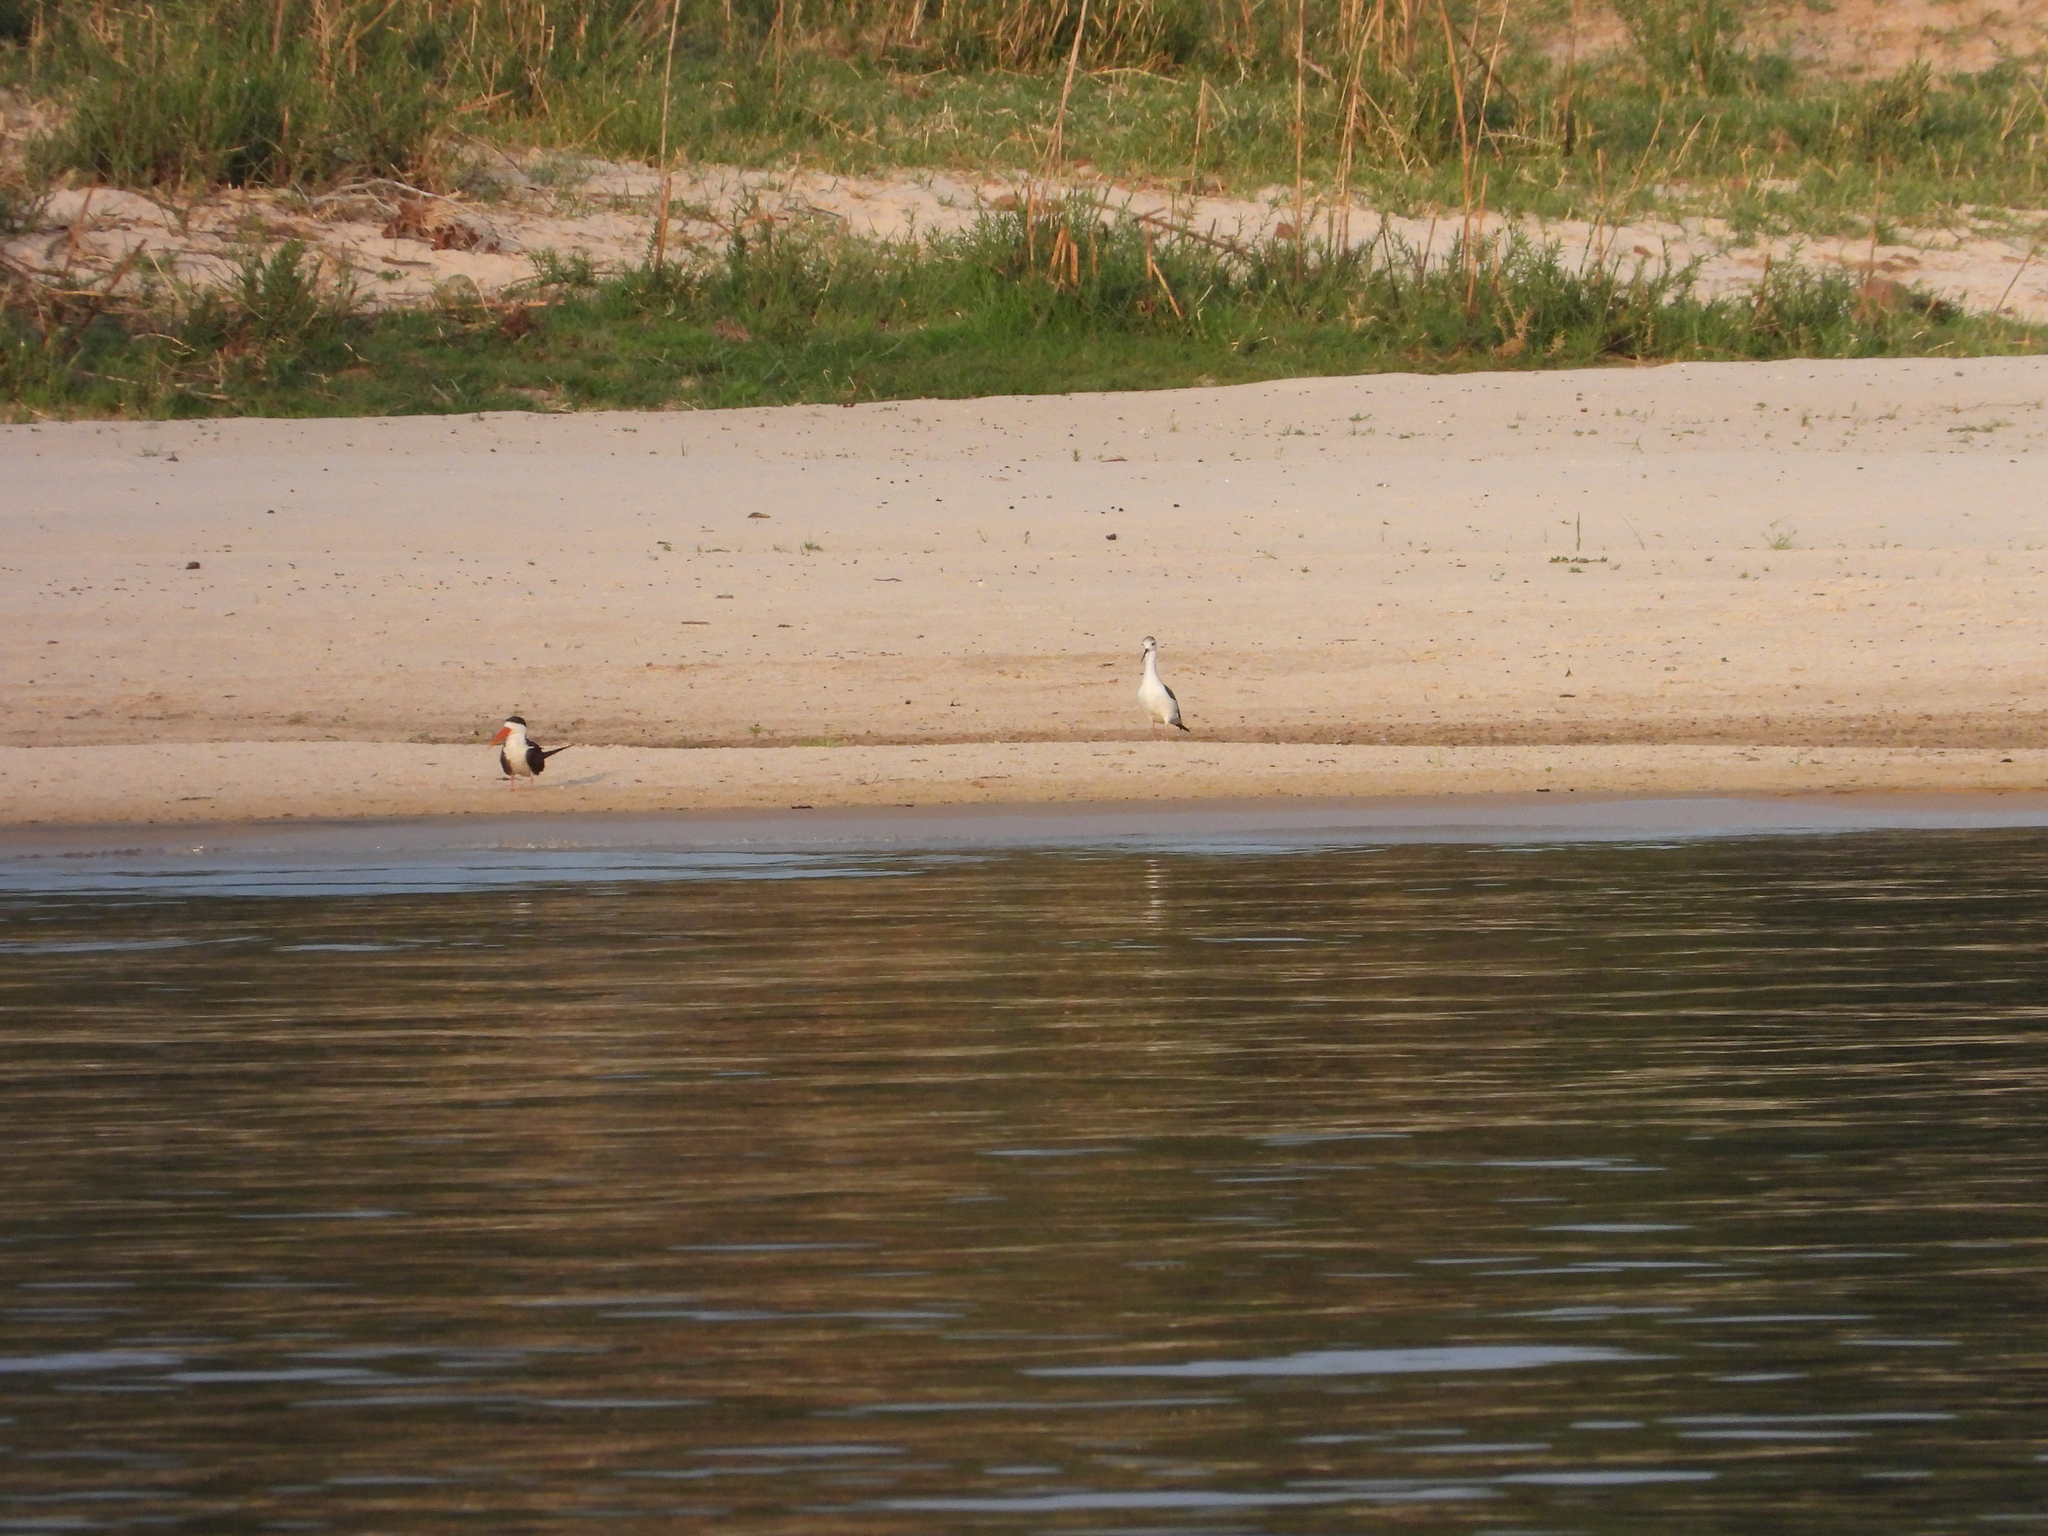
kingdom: Animalia
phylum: Chordata
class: Aves
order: Charadriiformes
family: Laridae
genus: Rynchops
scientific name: Rynchops flavirostris
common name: African skimmer
